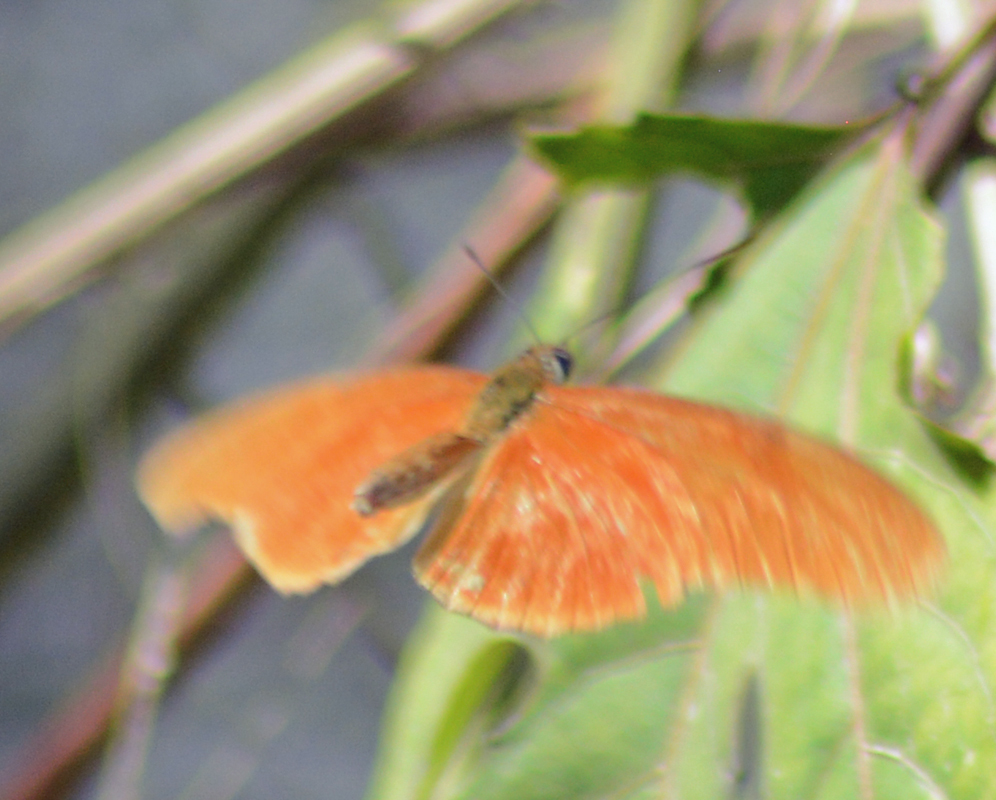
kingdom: Animalia
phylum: Arthropoda
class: Insecta
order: Lepidoptera
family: Nymphalidae
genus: Dryas
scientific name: Dryas iulia
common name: Flambeau
